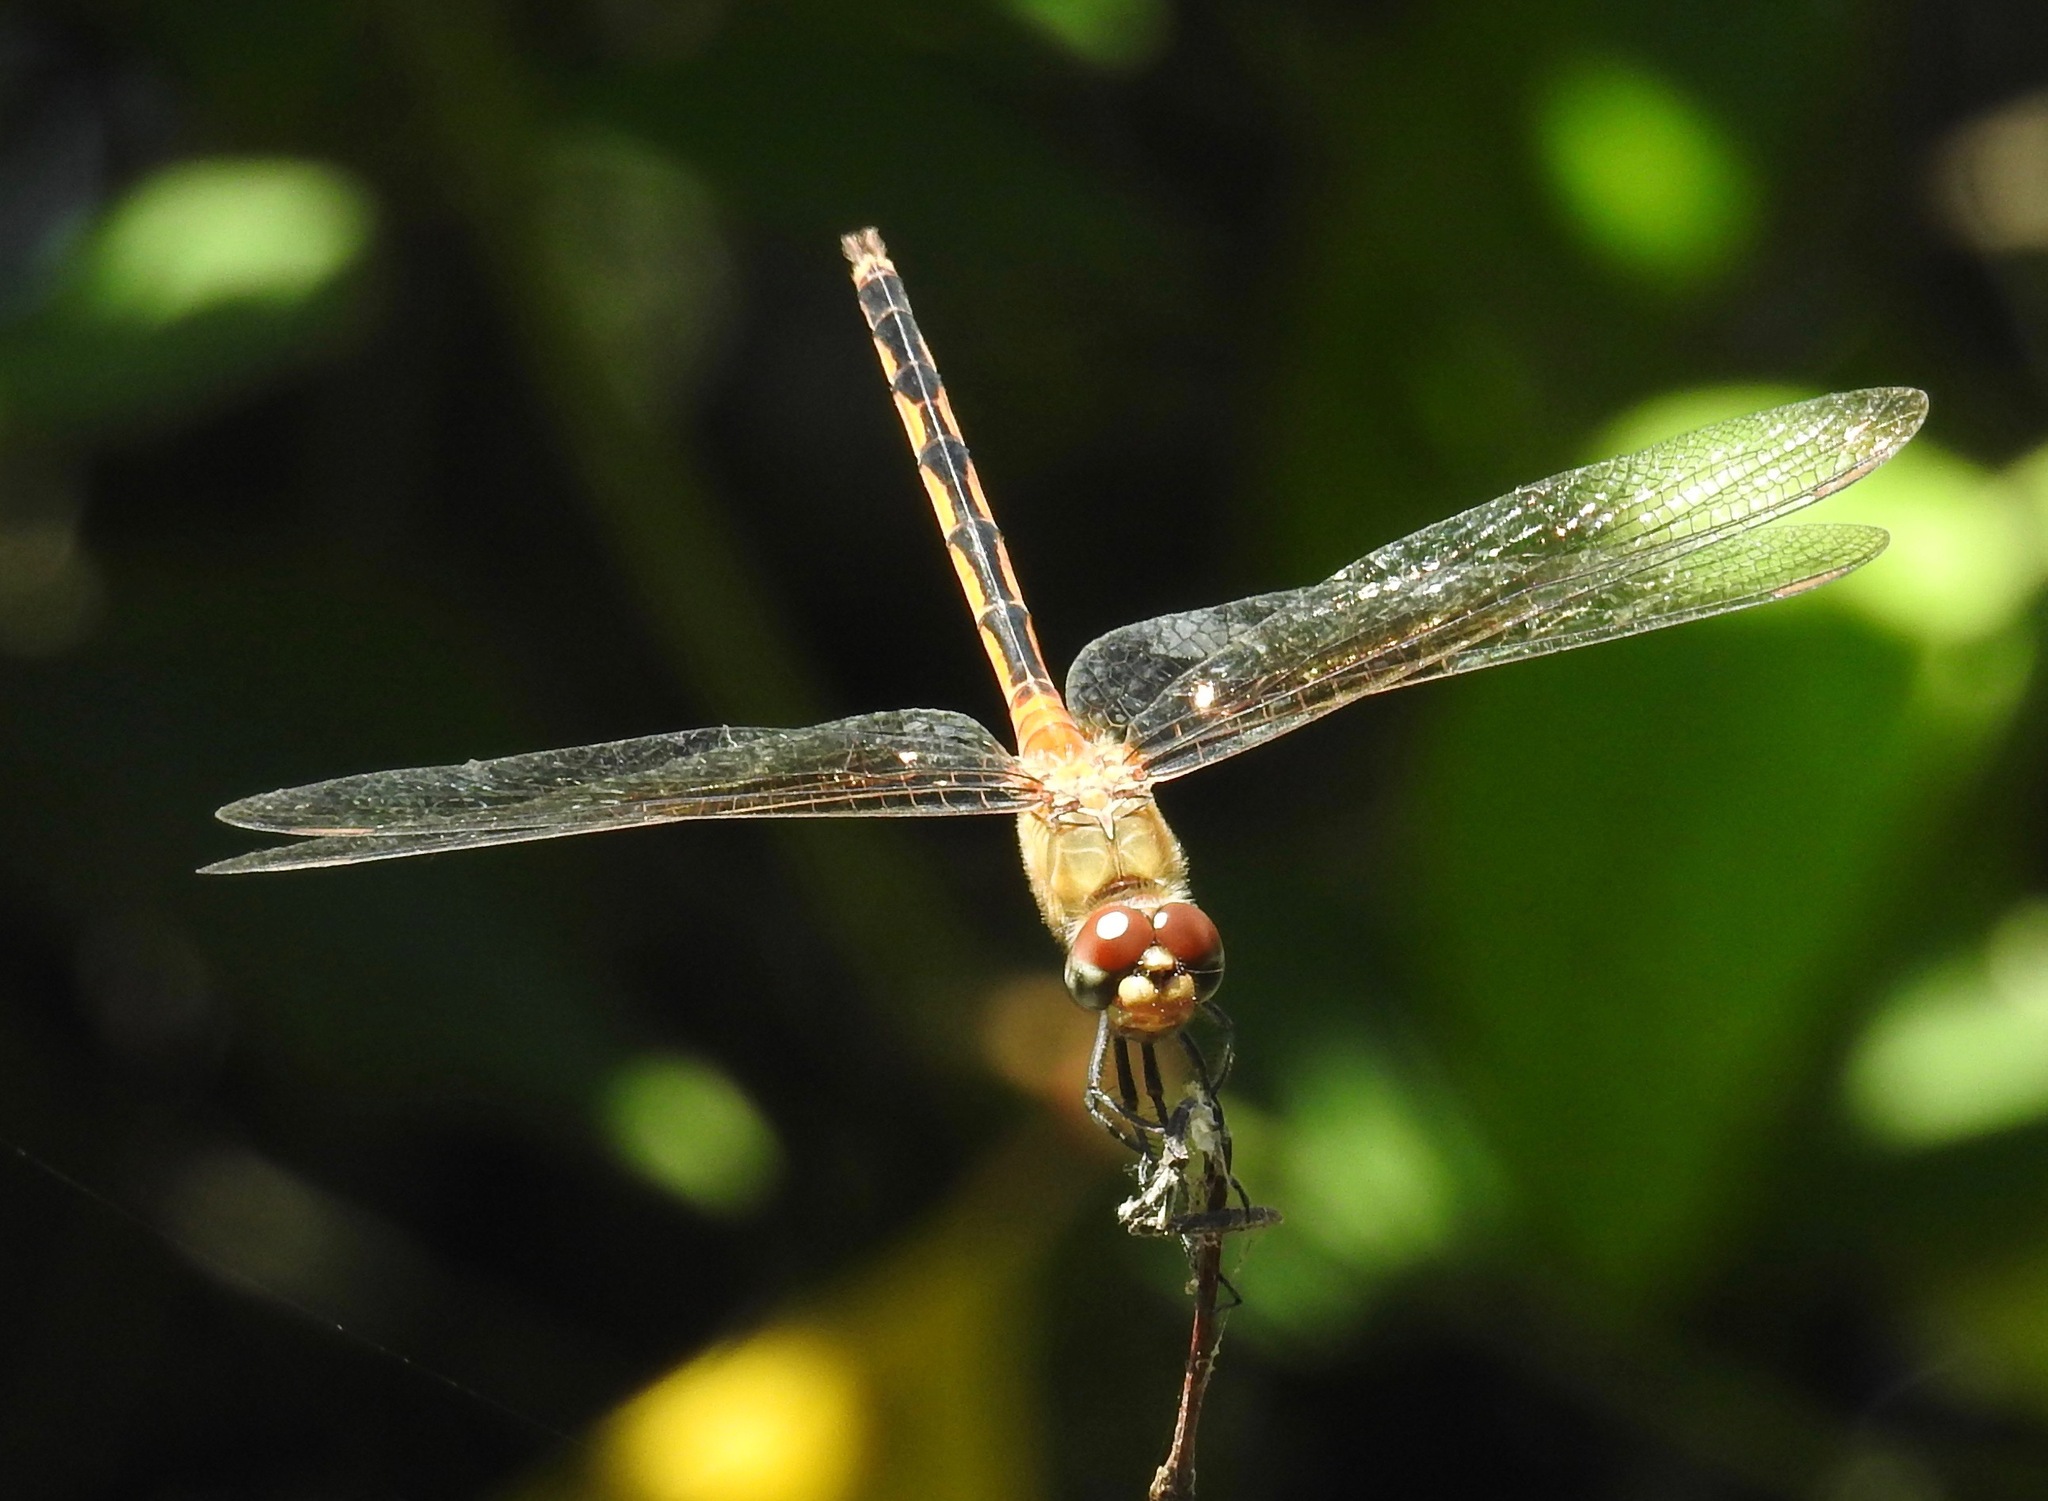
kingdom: Animalia
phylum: Arthropoda
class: Insecta
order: Odonata
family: Libellulidae
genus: Brachymesia
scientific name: Brachymesia herbida
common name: Tawny pennant
